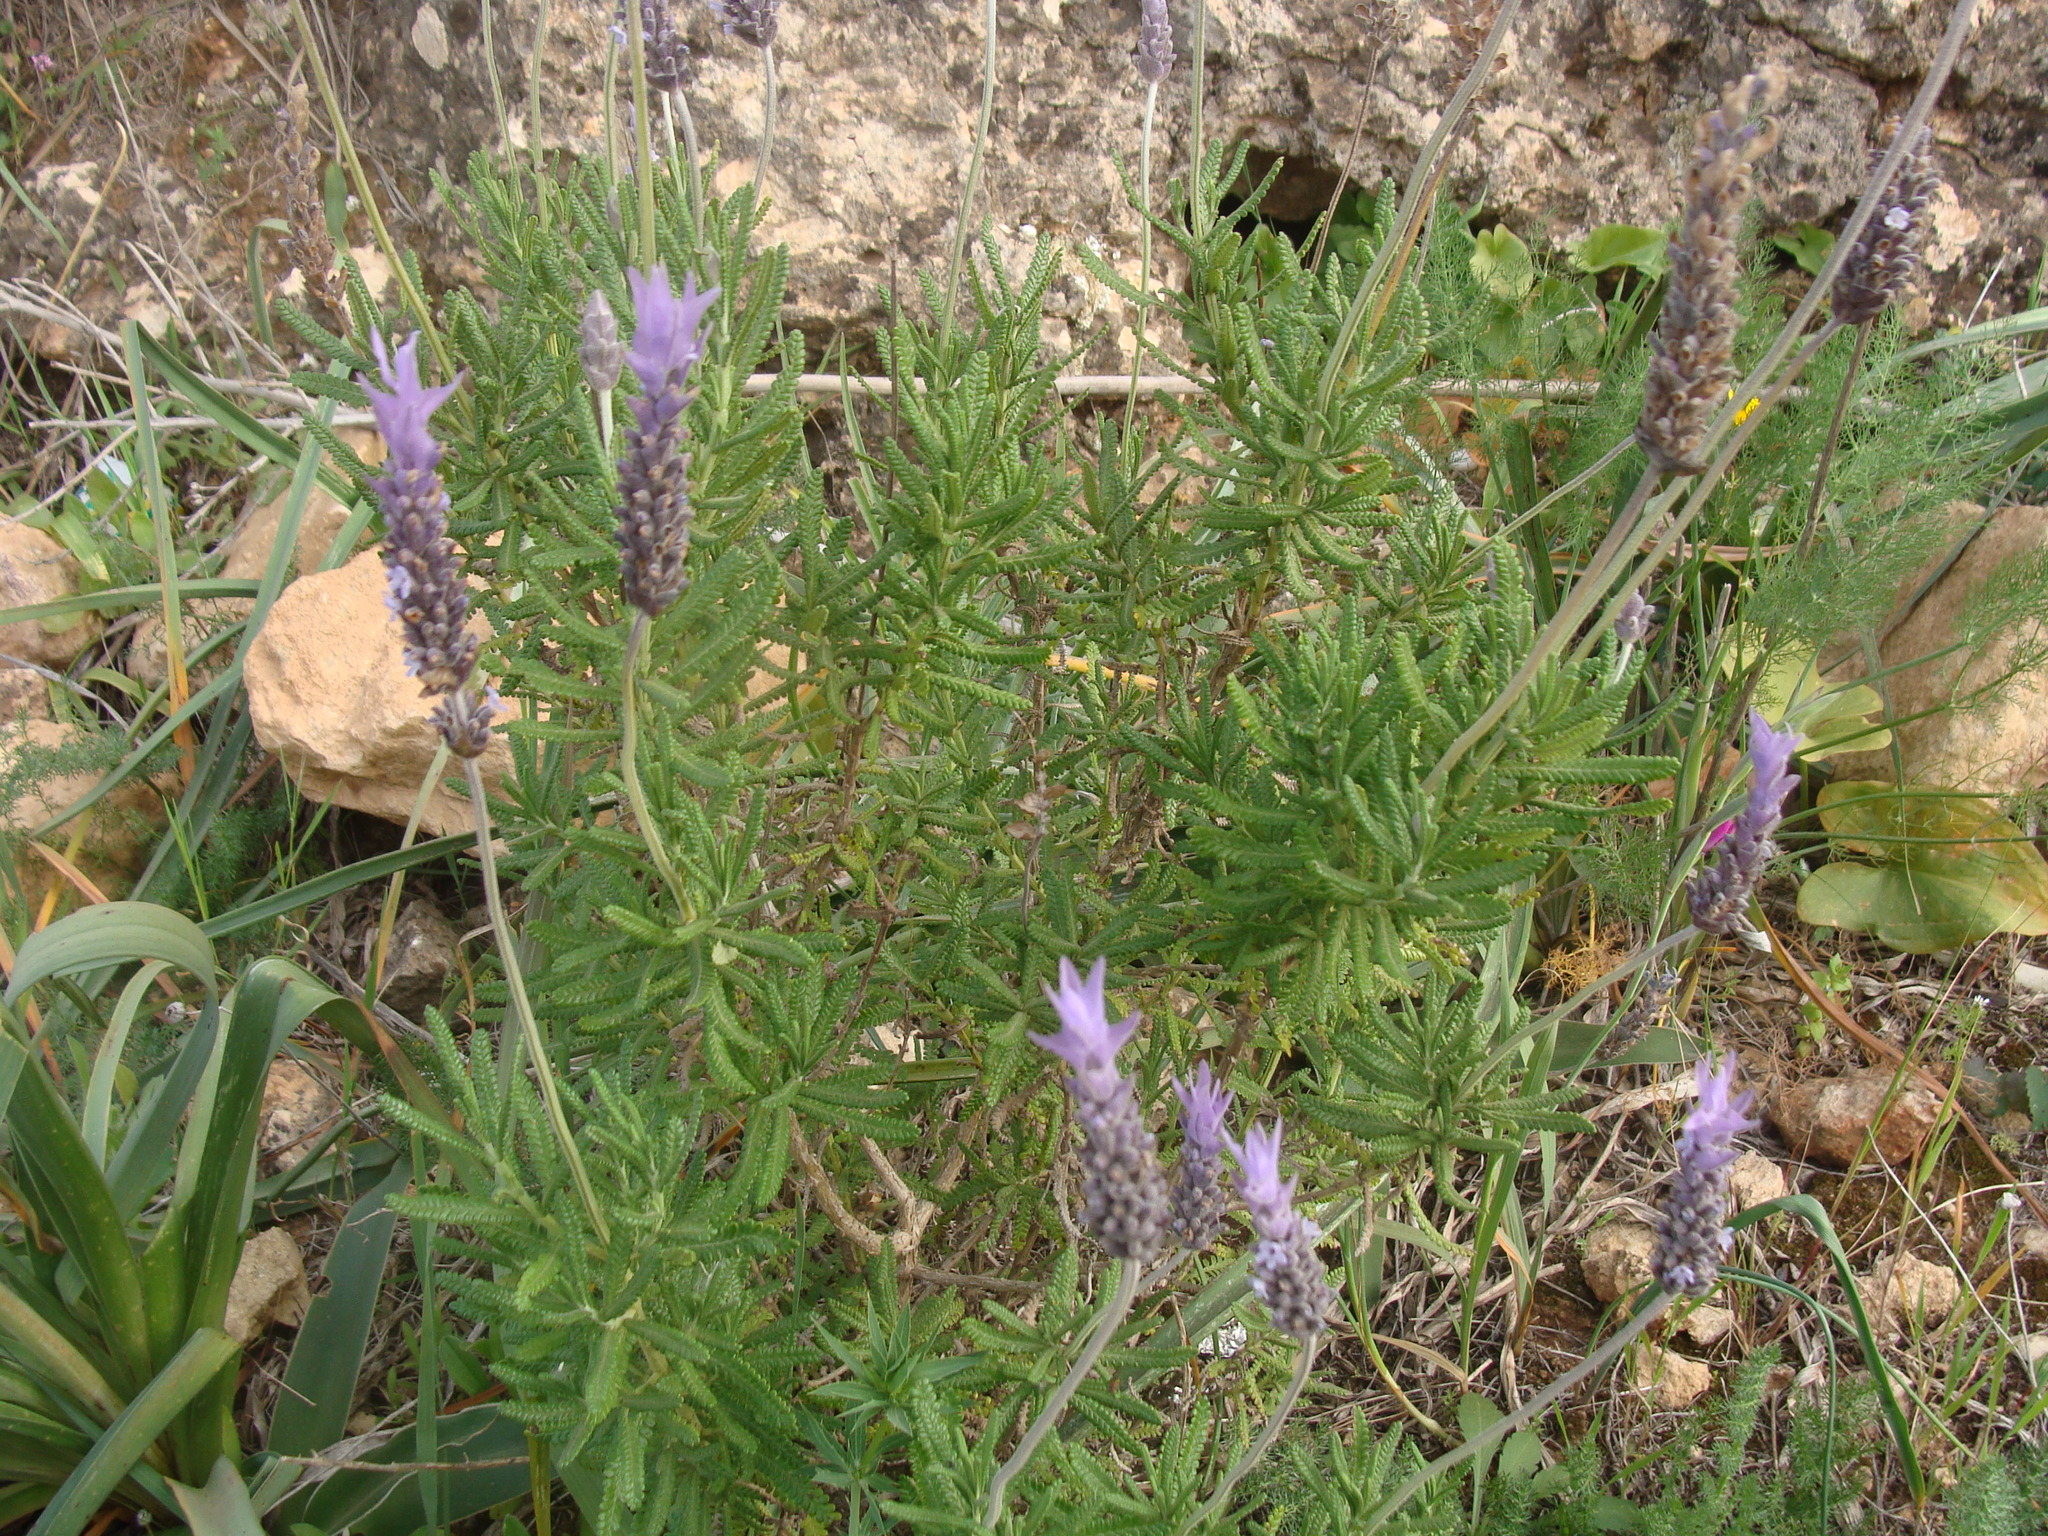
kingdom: Plantae
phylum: Tracheophyta
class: Magnoliopsida
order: Lamiales
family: Lamiaceae
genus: Lavandula
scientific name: Lavandula dentata
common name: French lavender
